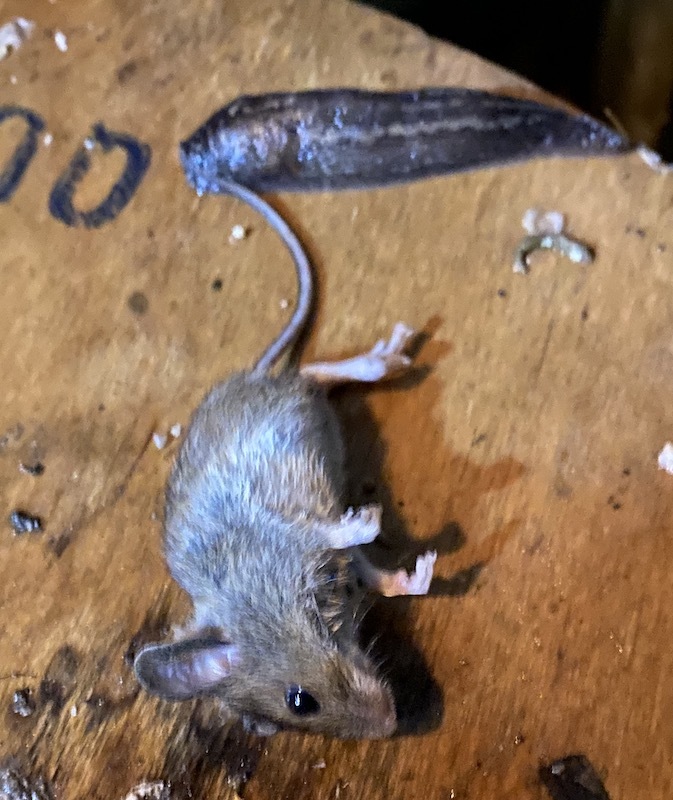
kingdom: Animalia
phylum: Chordata
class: Mammalia
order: Rodentia
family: Muridae
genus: Mus
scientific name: Mus musculus
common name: House mouse
